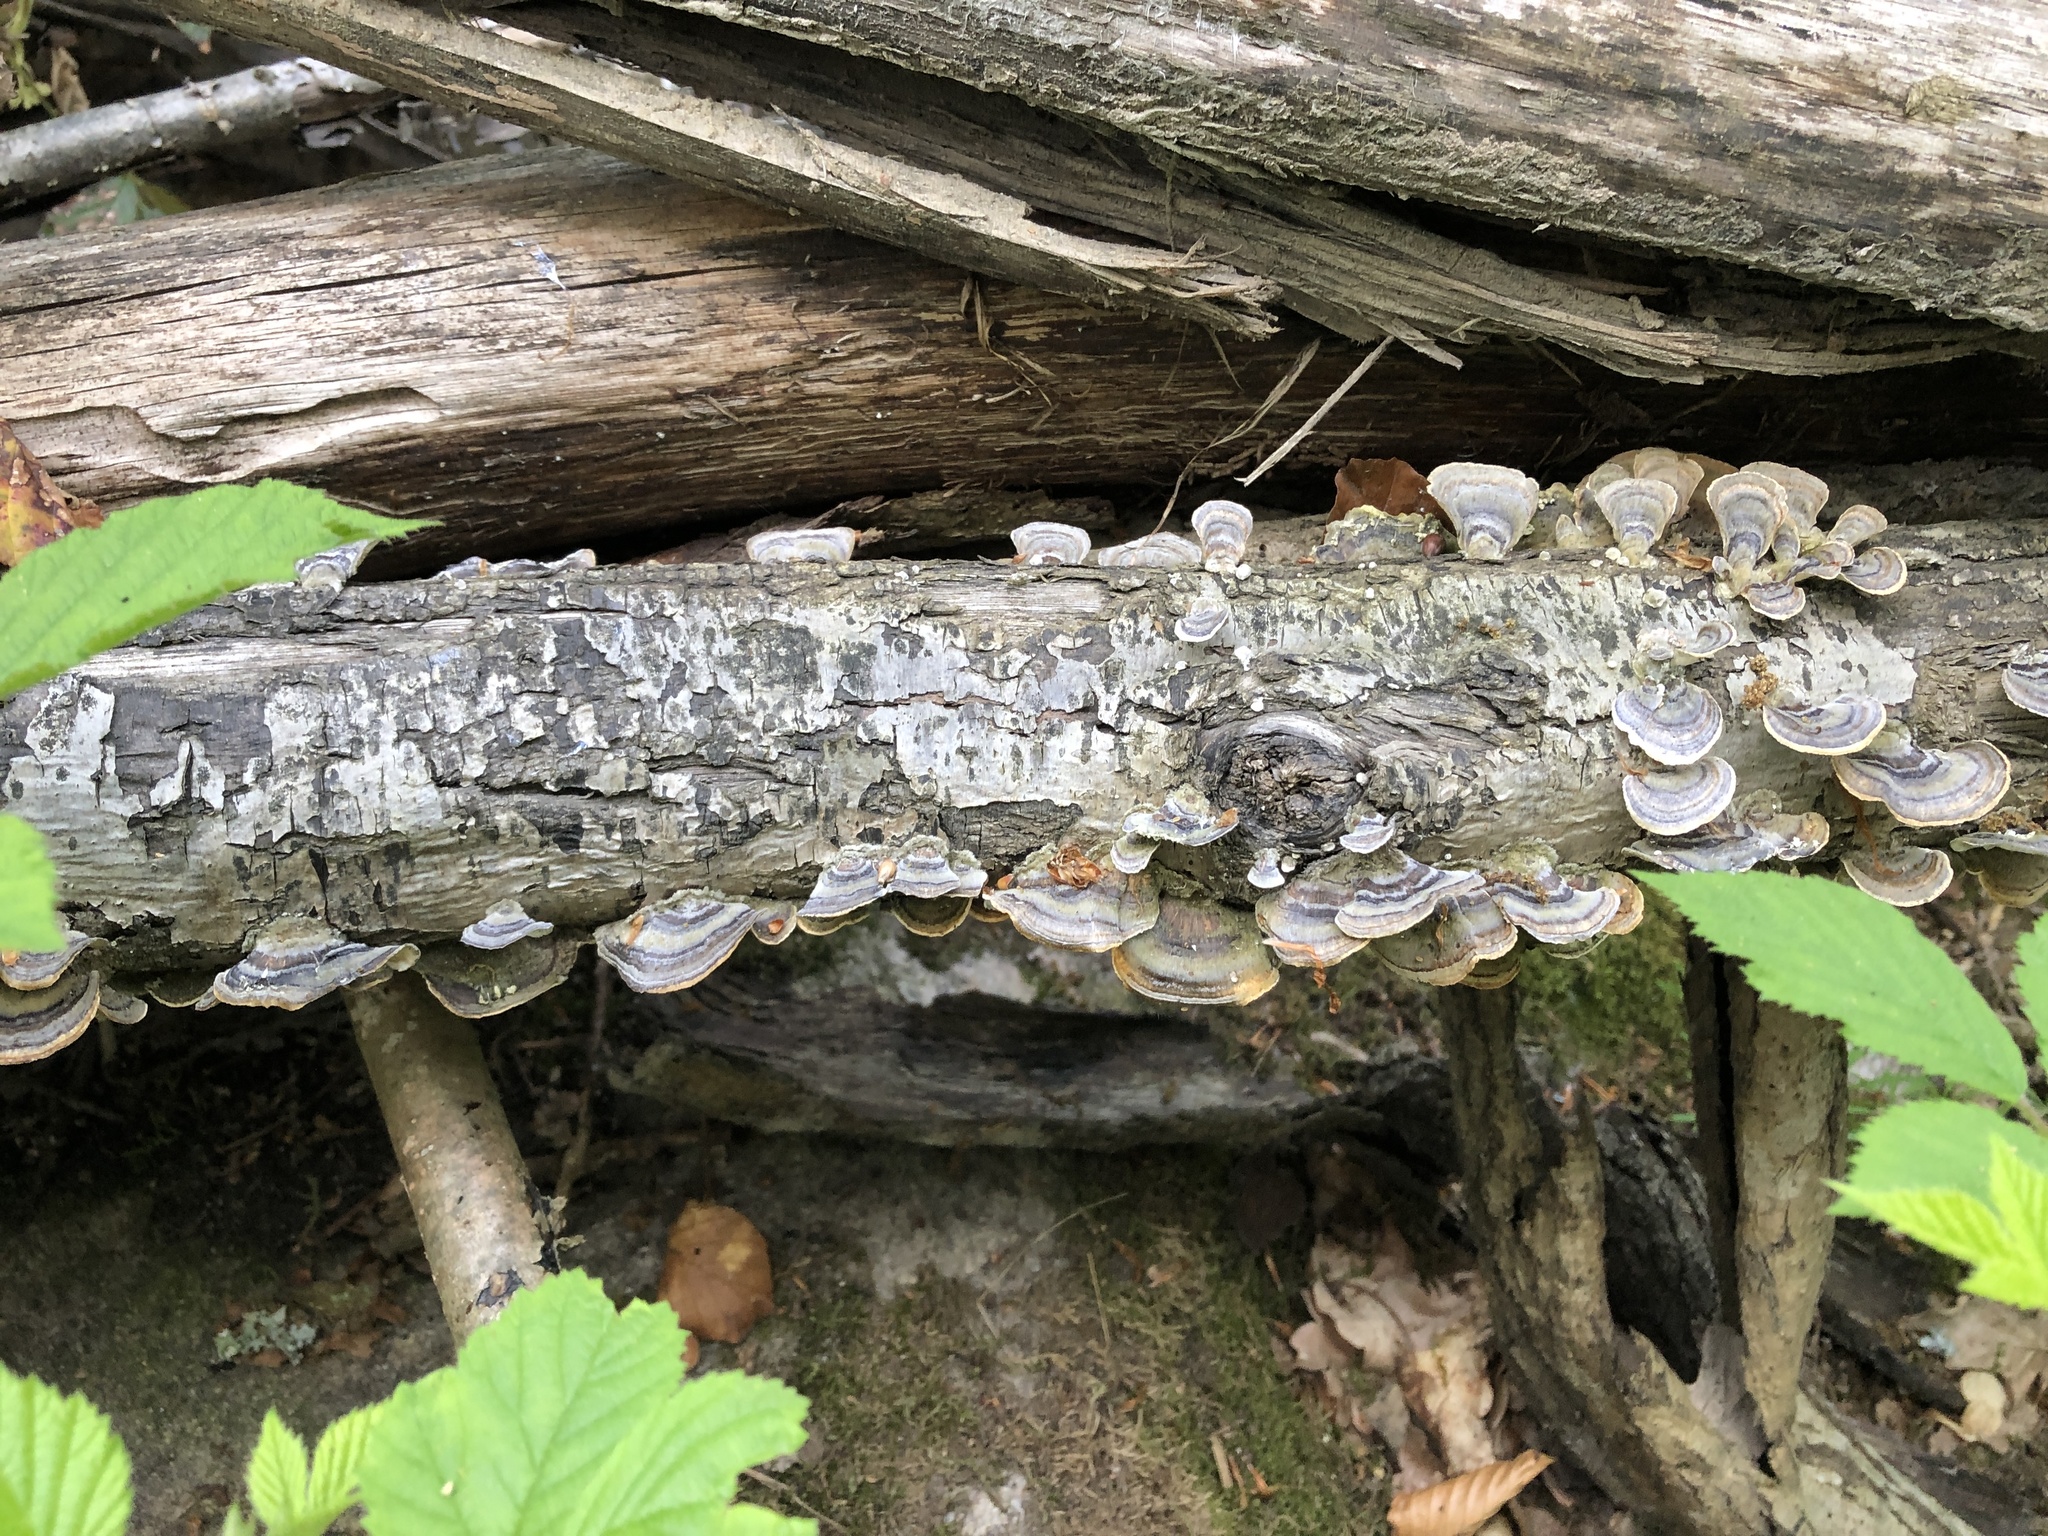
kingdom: Fungi
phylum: Basidiomycota
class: Agaricomycetes
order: Polyporales
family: Polyporaceae
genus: Trametes
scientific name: Trametes versicolor
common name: Turkeytail
